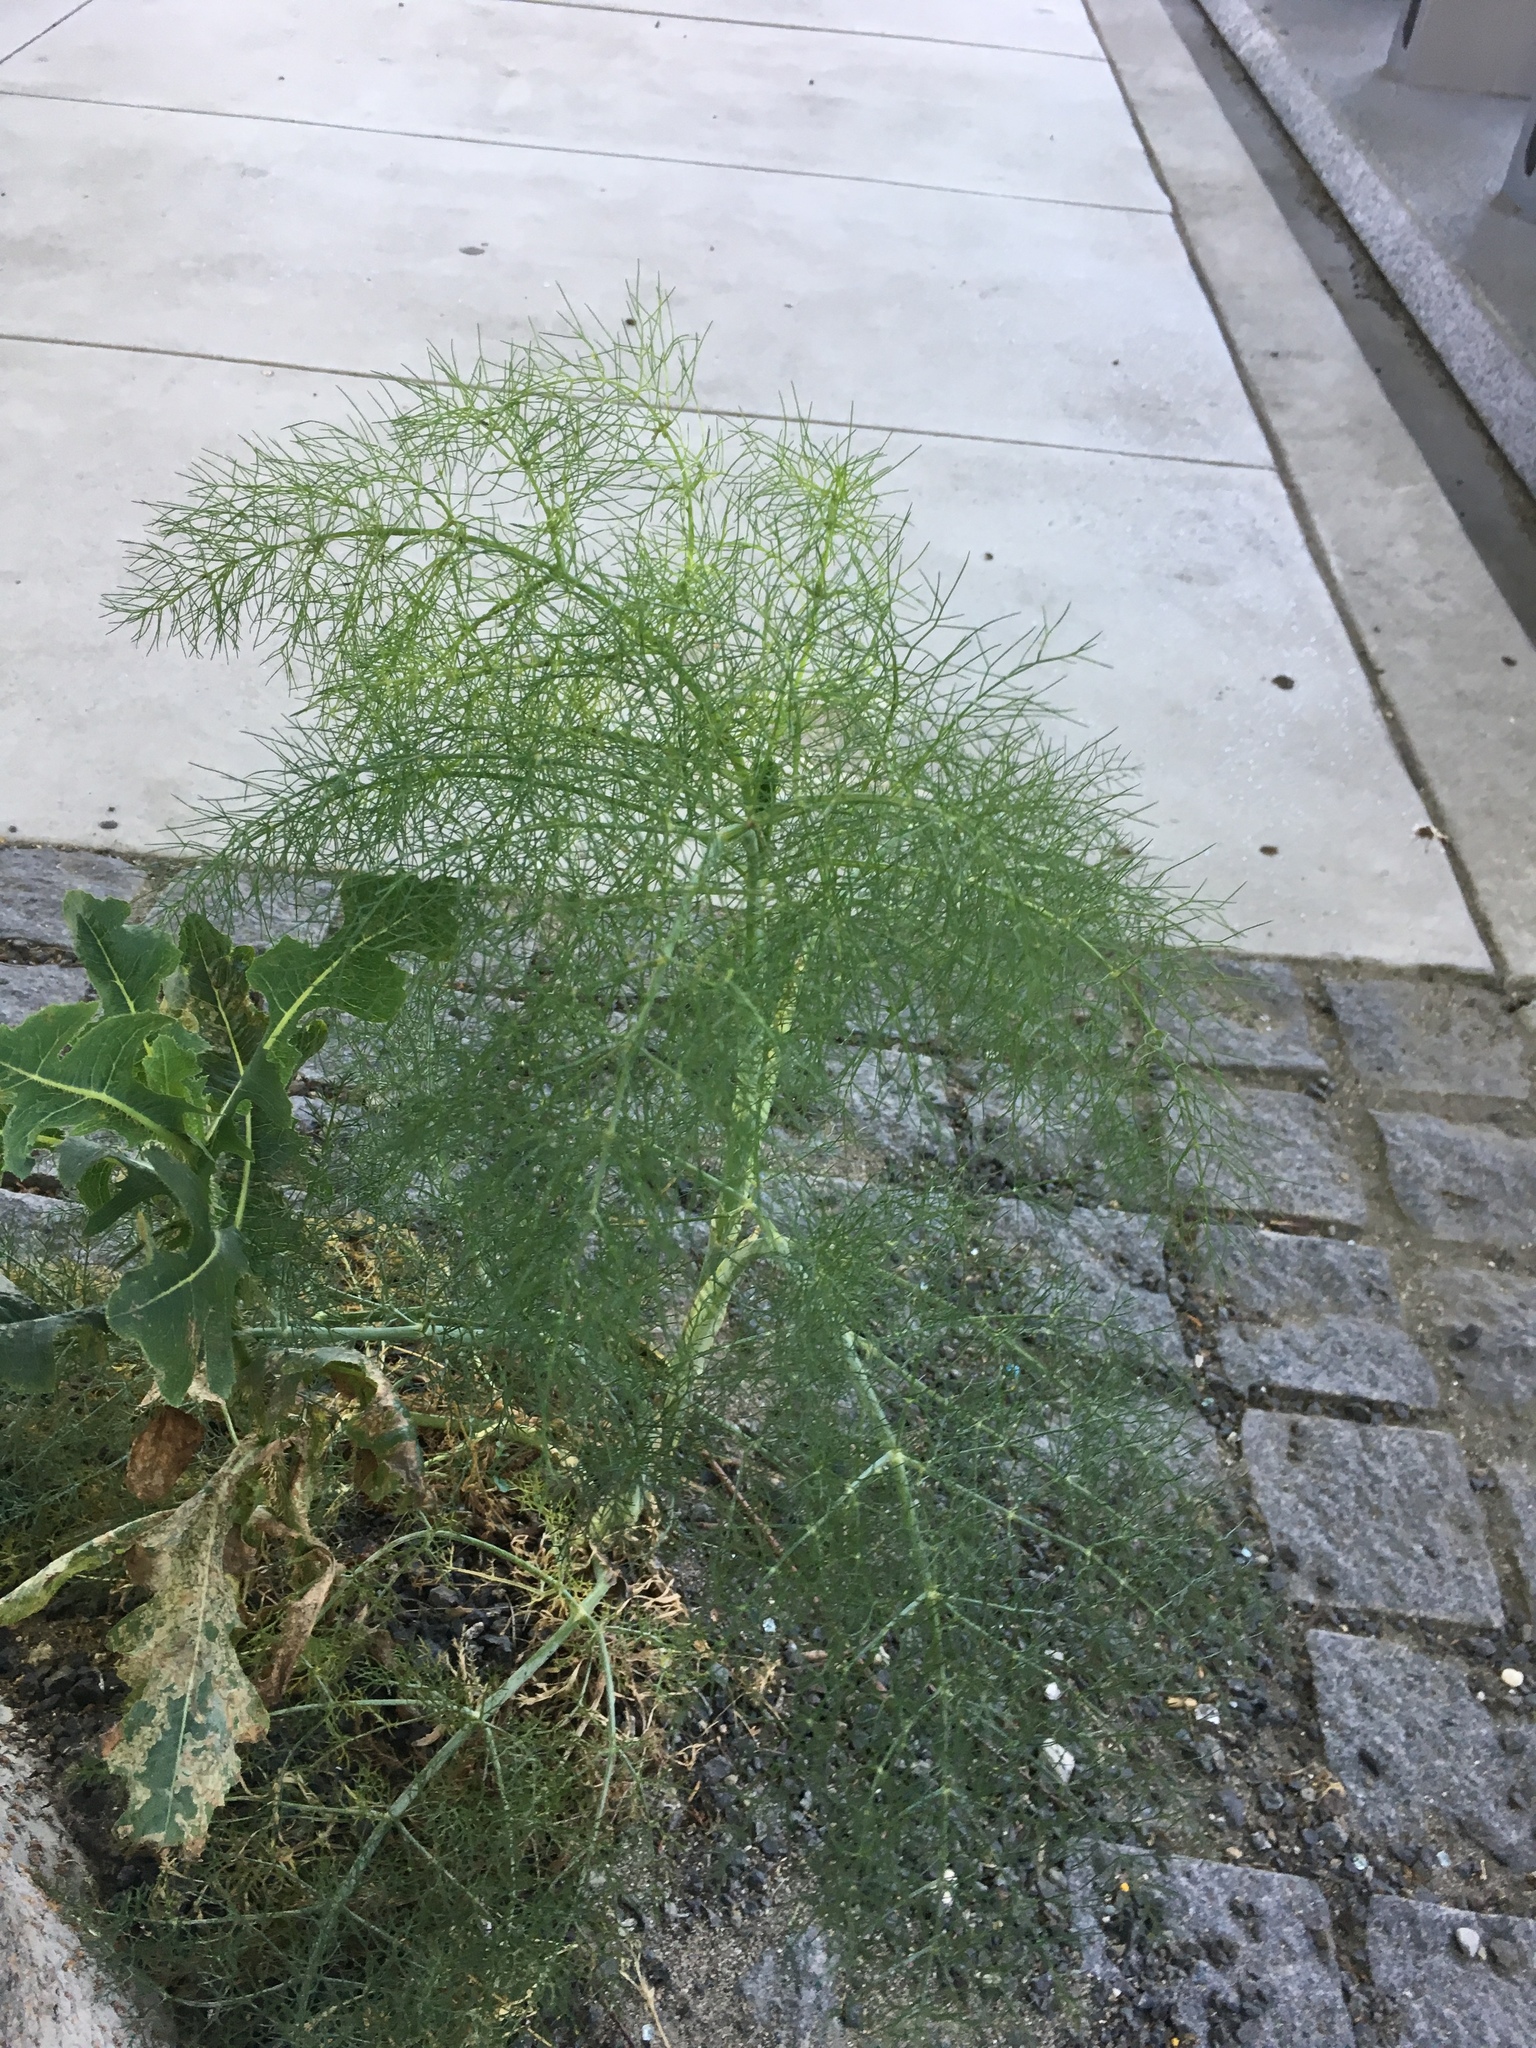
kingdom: Plantae
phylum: Tracheophyta
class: Magnoliopsida
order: Apiales
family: Apiaceae
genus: Foeniculum
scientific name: Foeniculum vulgare
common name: Fennel
